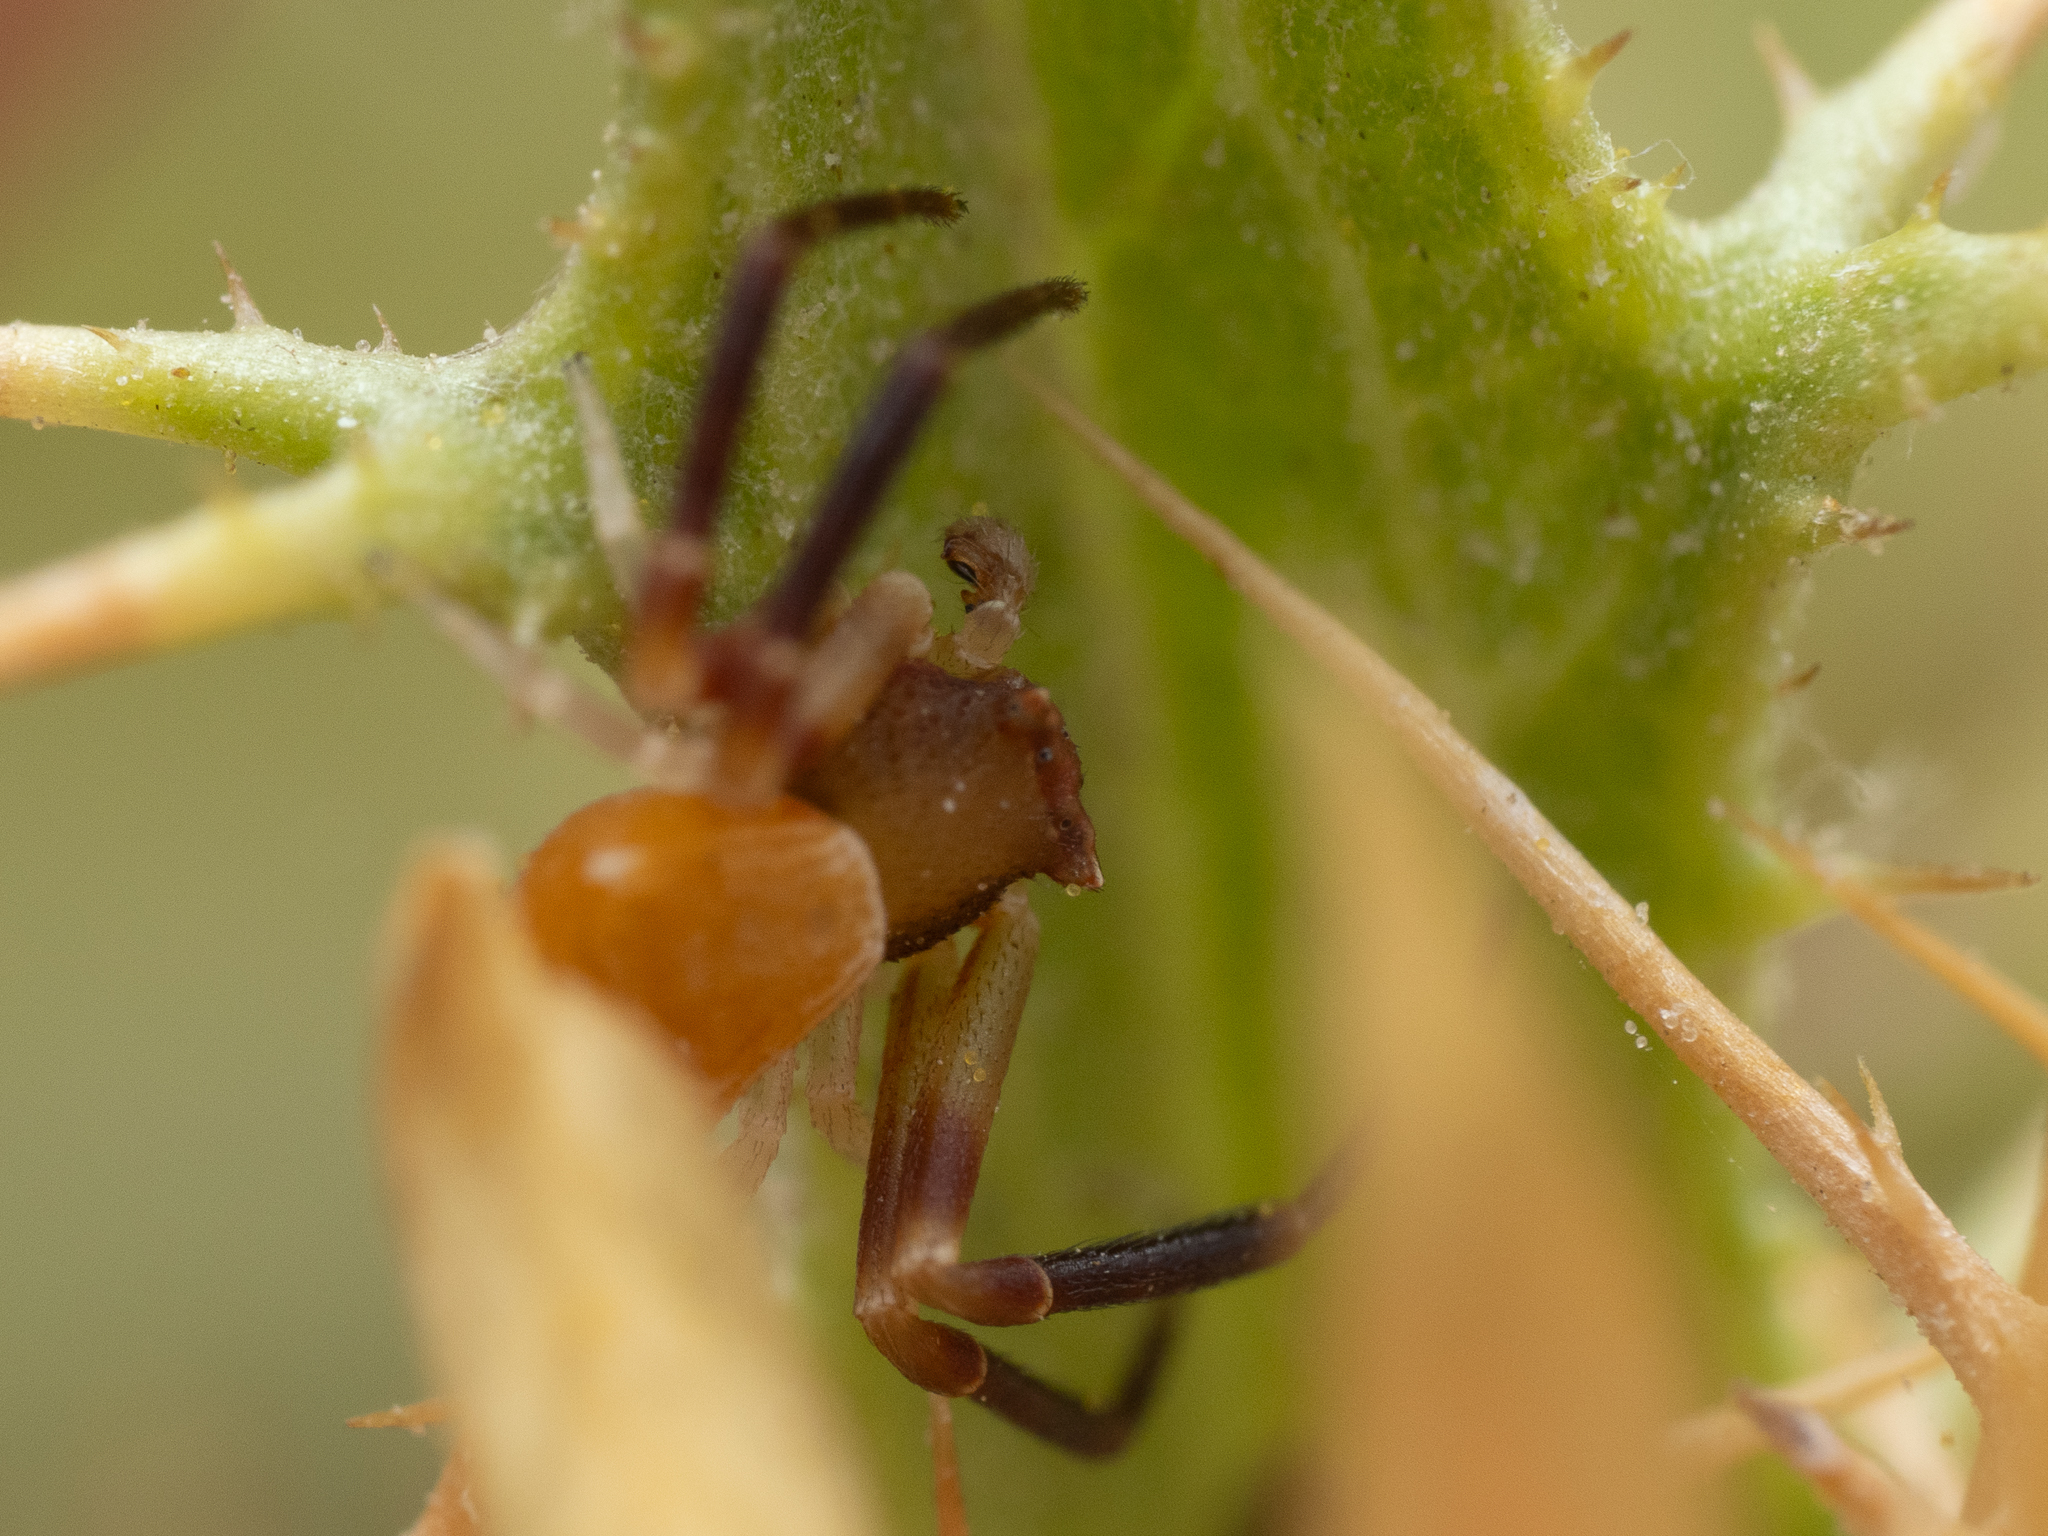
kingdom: Animalia
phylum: Arthropoda
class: Arachnida
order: Araneae
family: Thomisidae
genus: Thomisus
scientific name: Thomisus onustus
